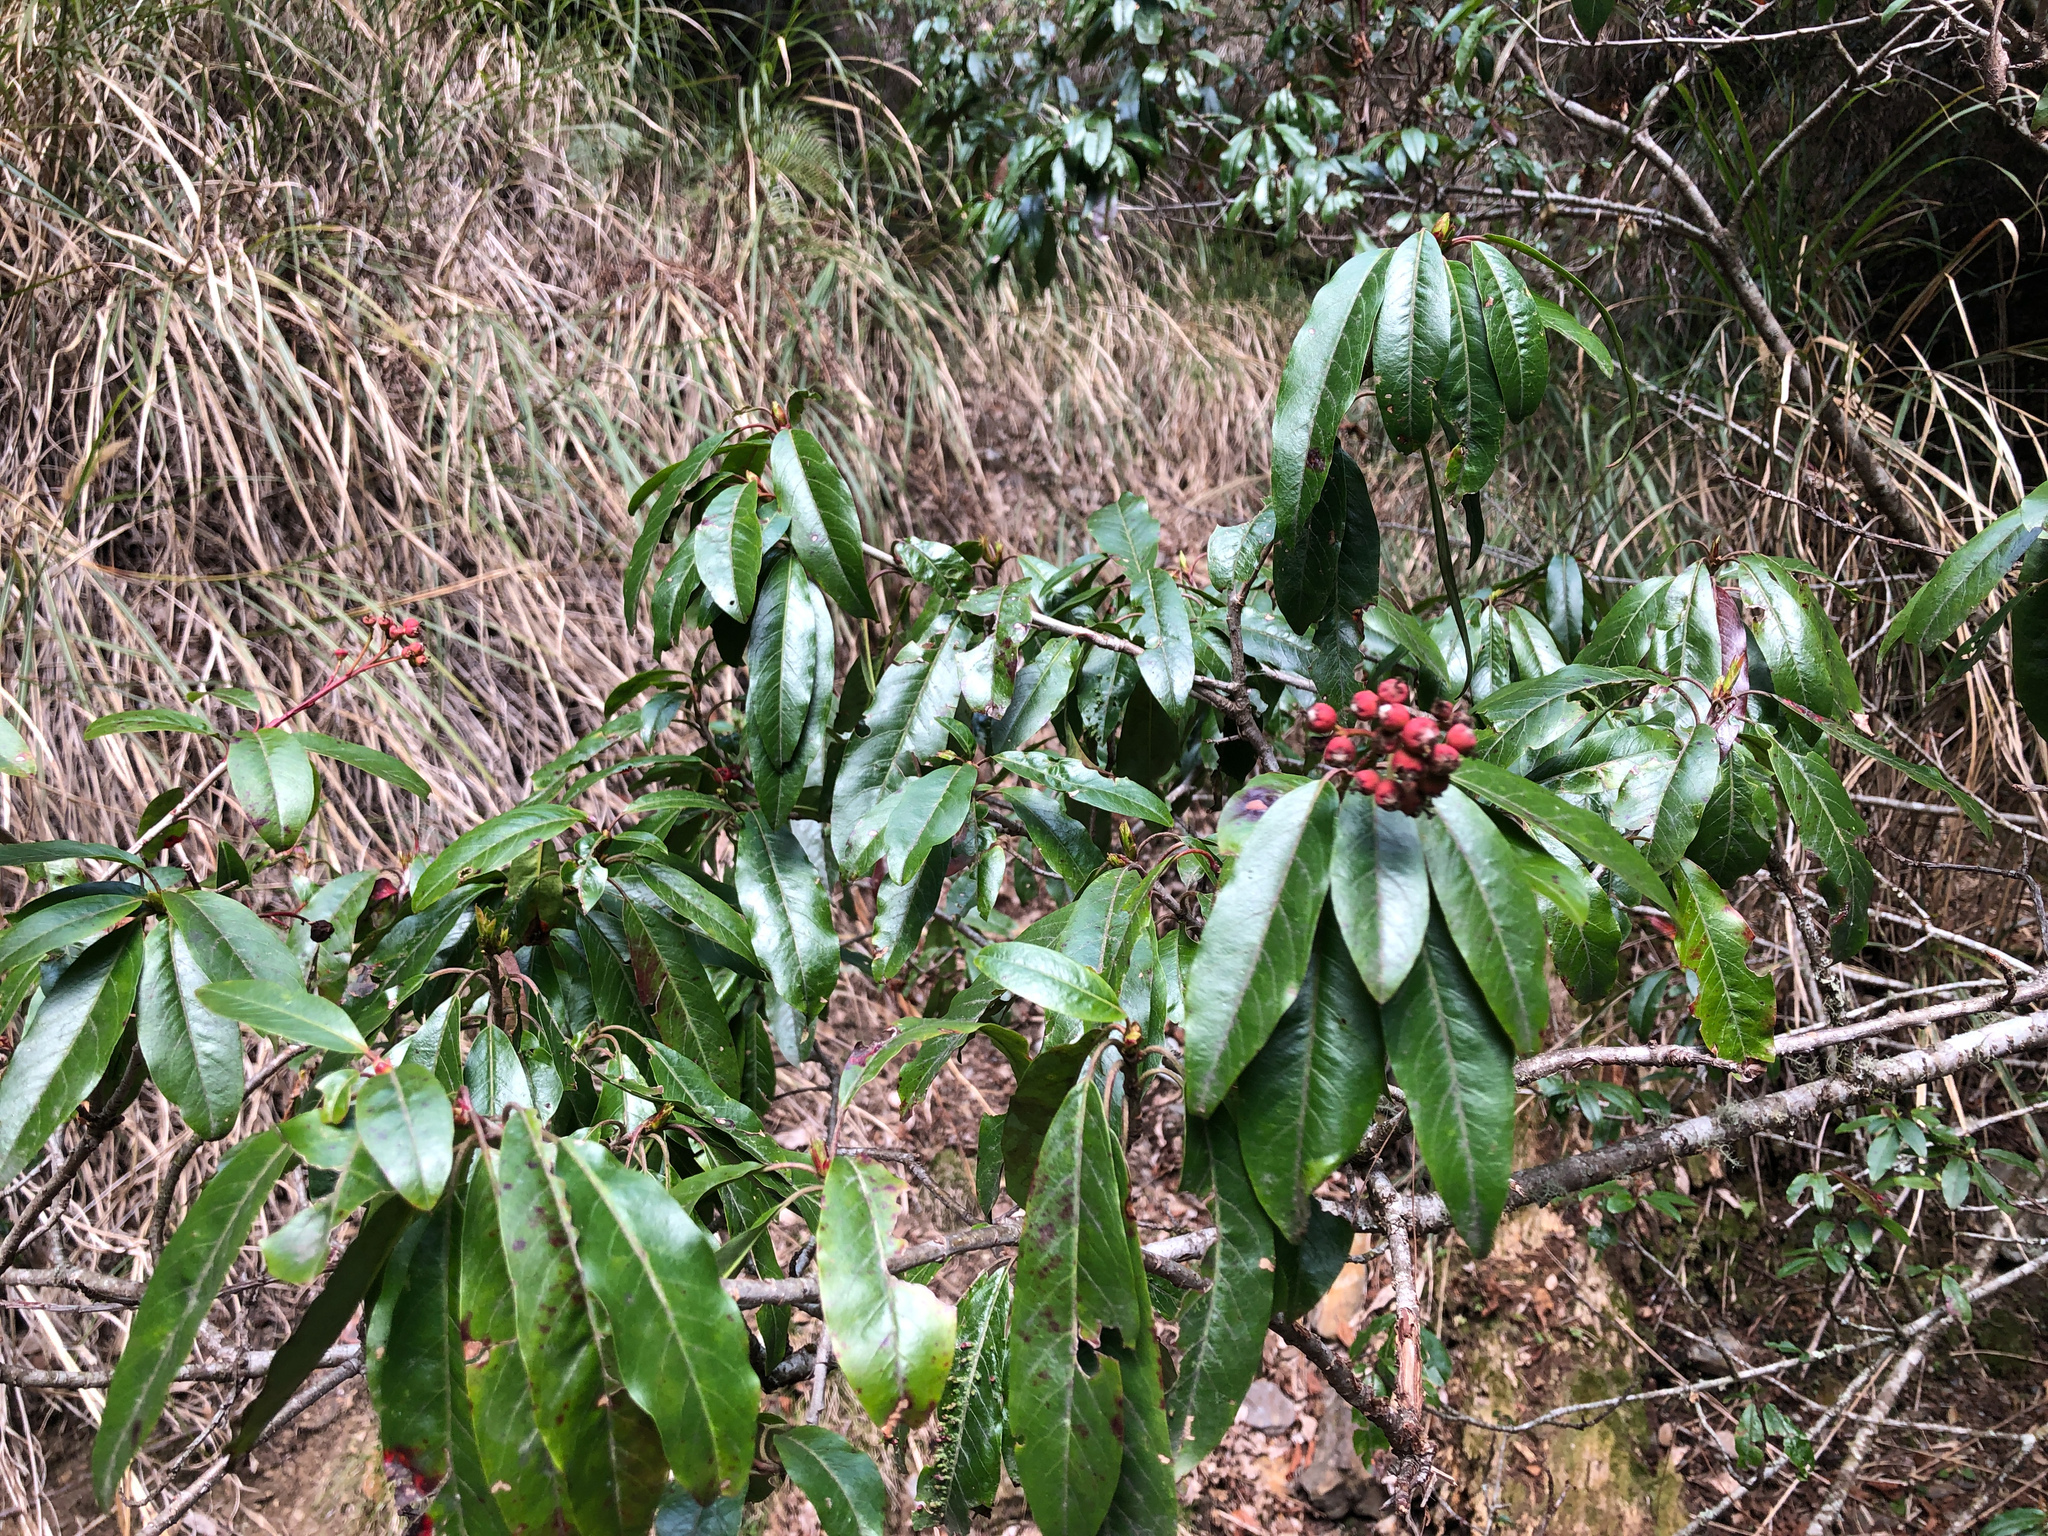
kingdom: Plantae
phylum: Tracheophyta
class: Magnoliopsida
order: Rosales
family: Rosaceae
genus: Stranvaesia
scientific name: Stranvaesia davidiana
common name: Chinese photinia
